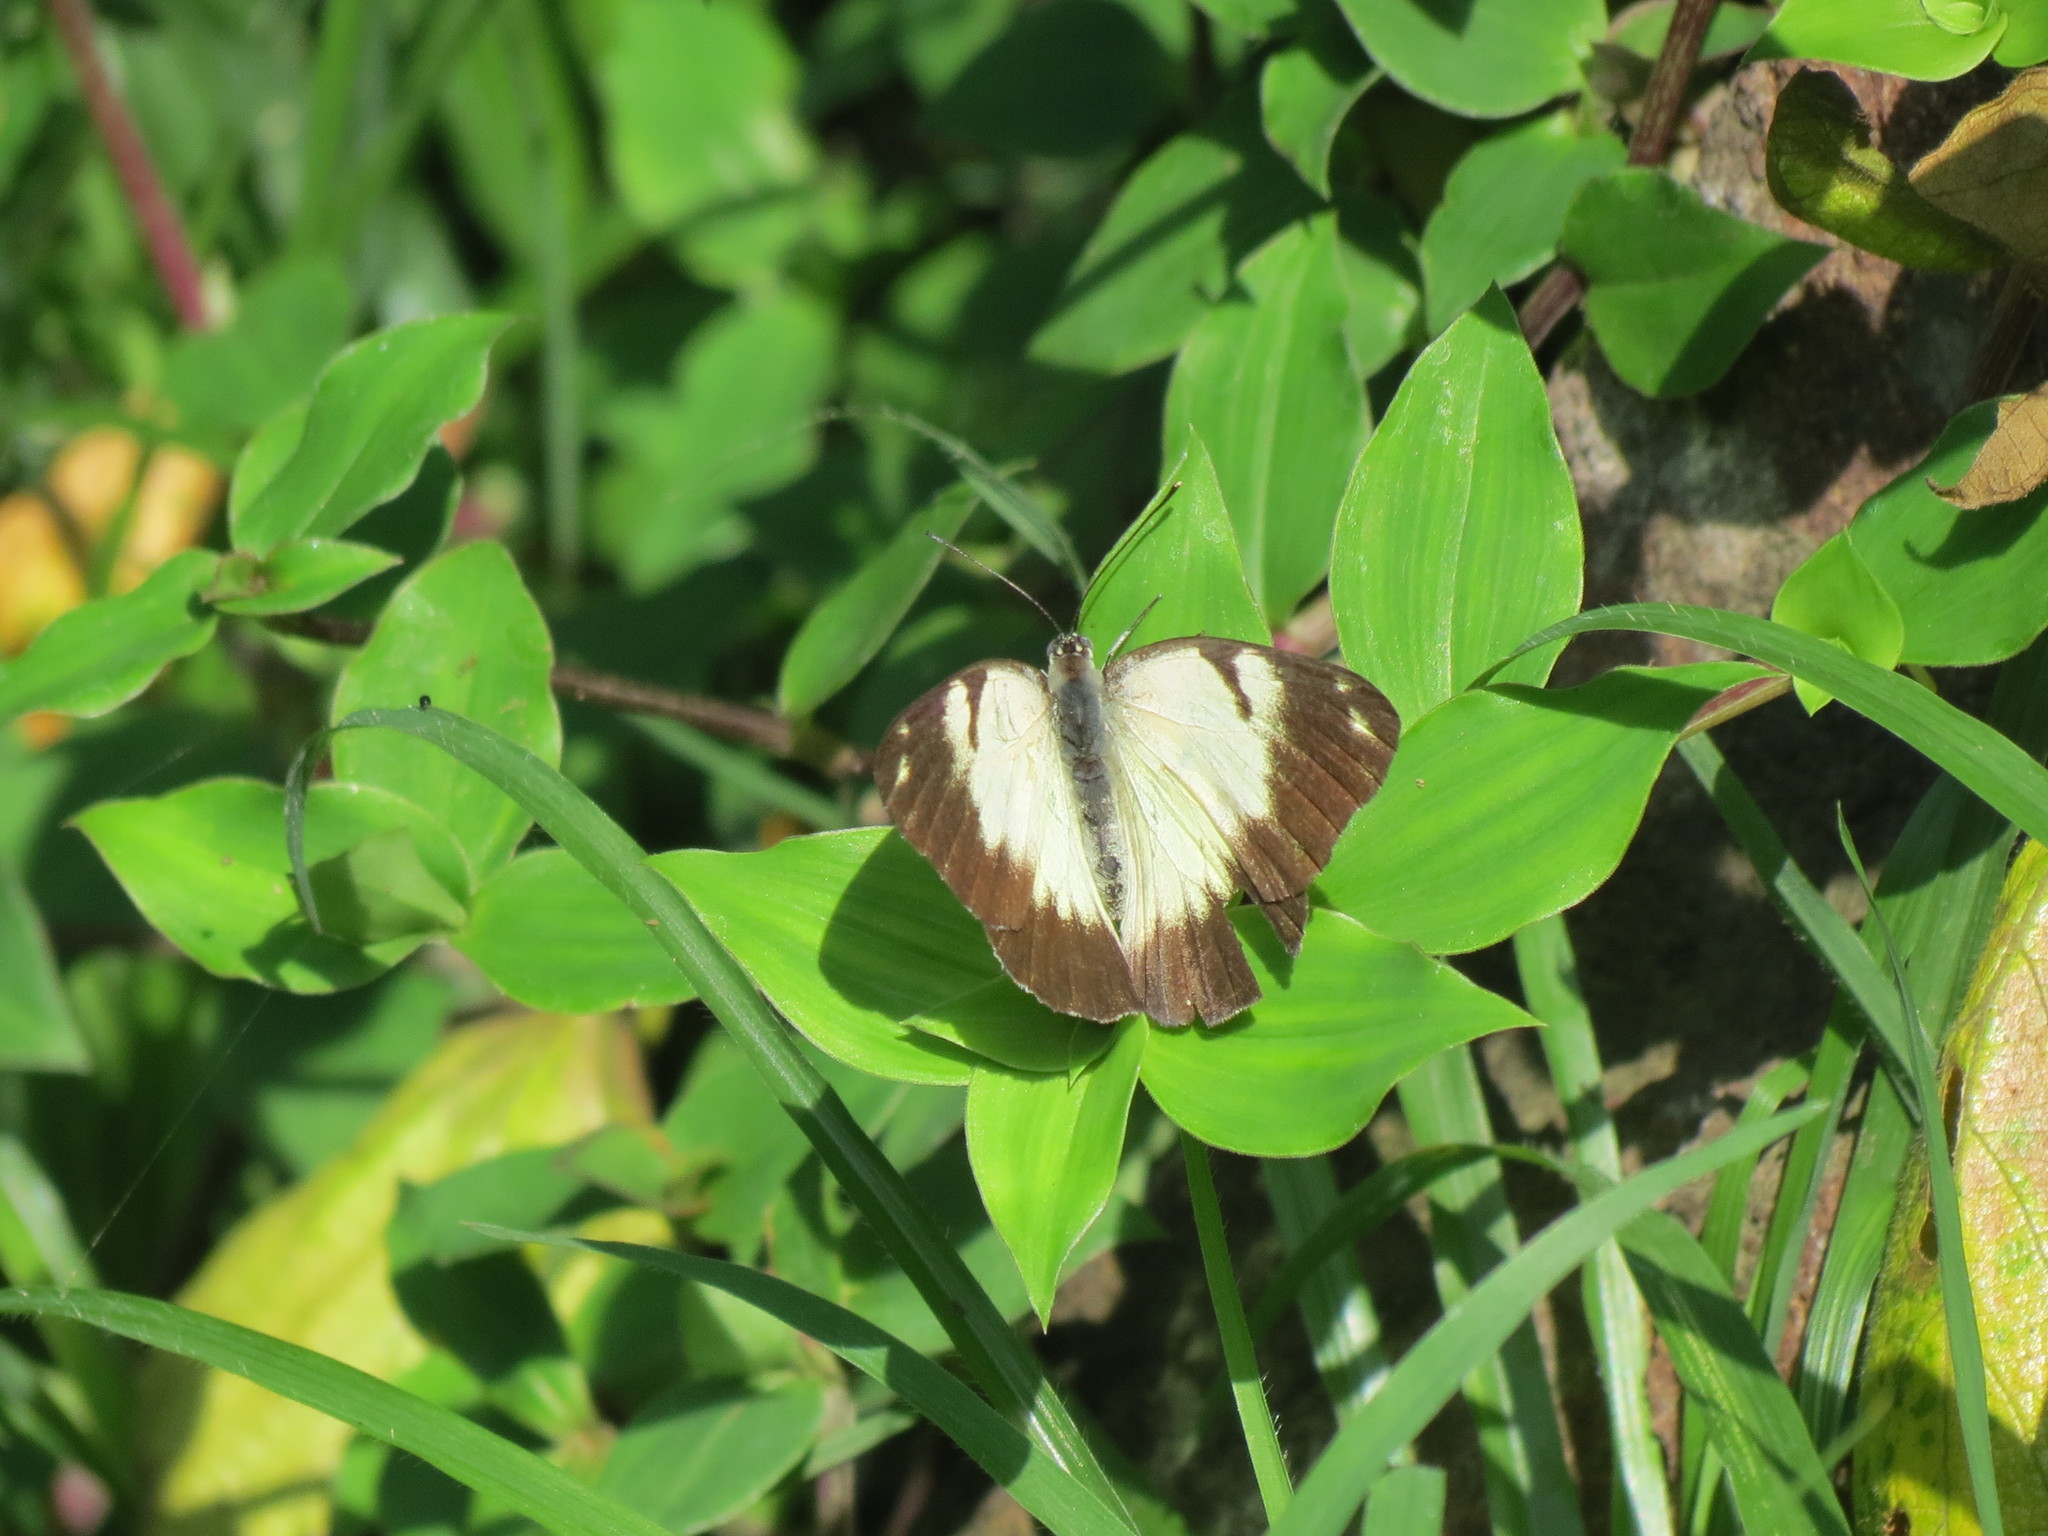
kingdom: Animalia
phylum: Arthropoda
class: Insecta
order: Lepidoptera
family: Pieridae
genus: Belenois
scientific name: Belenois creona
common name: African caper white
